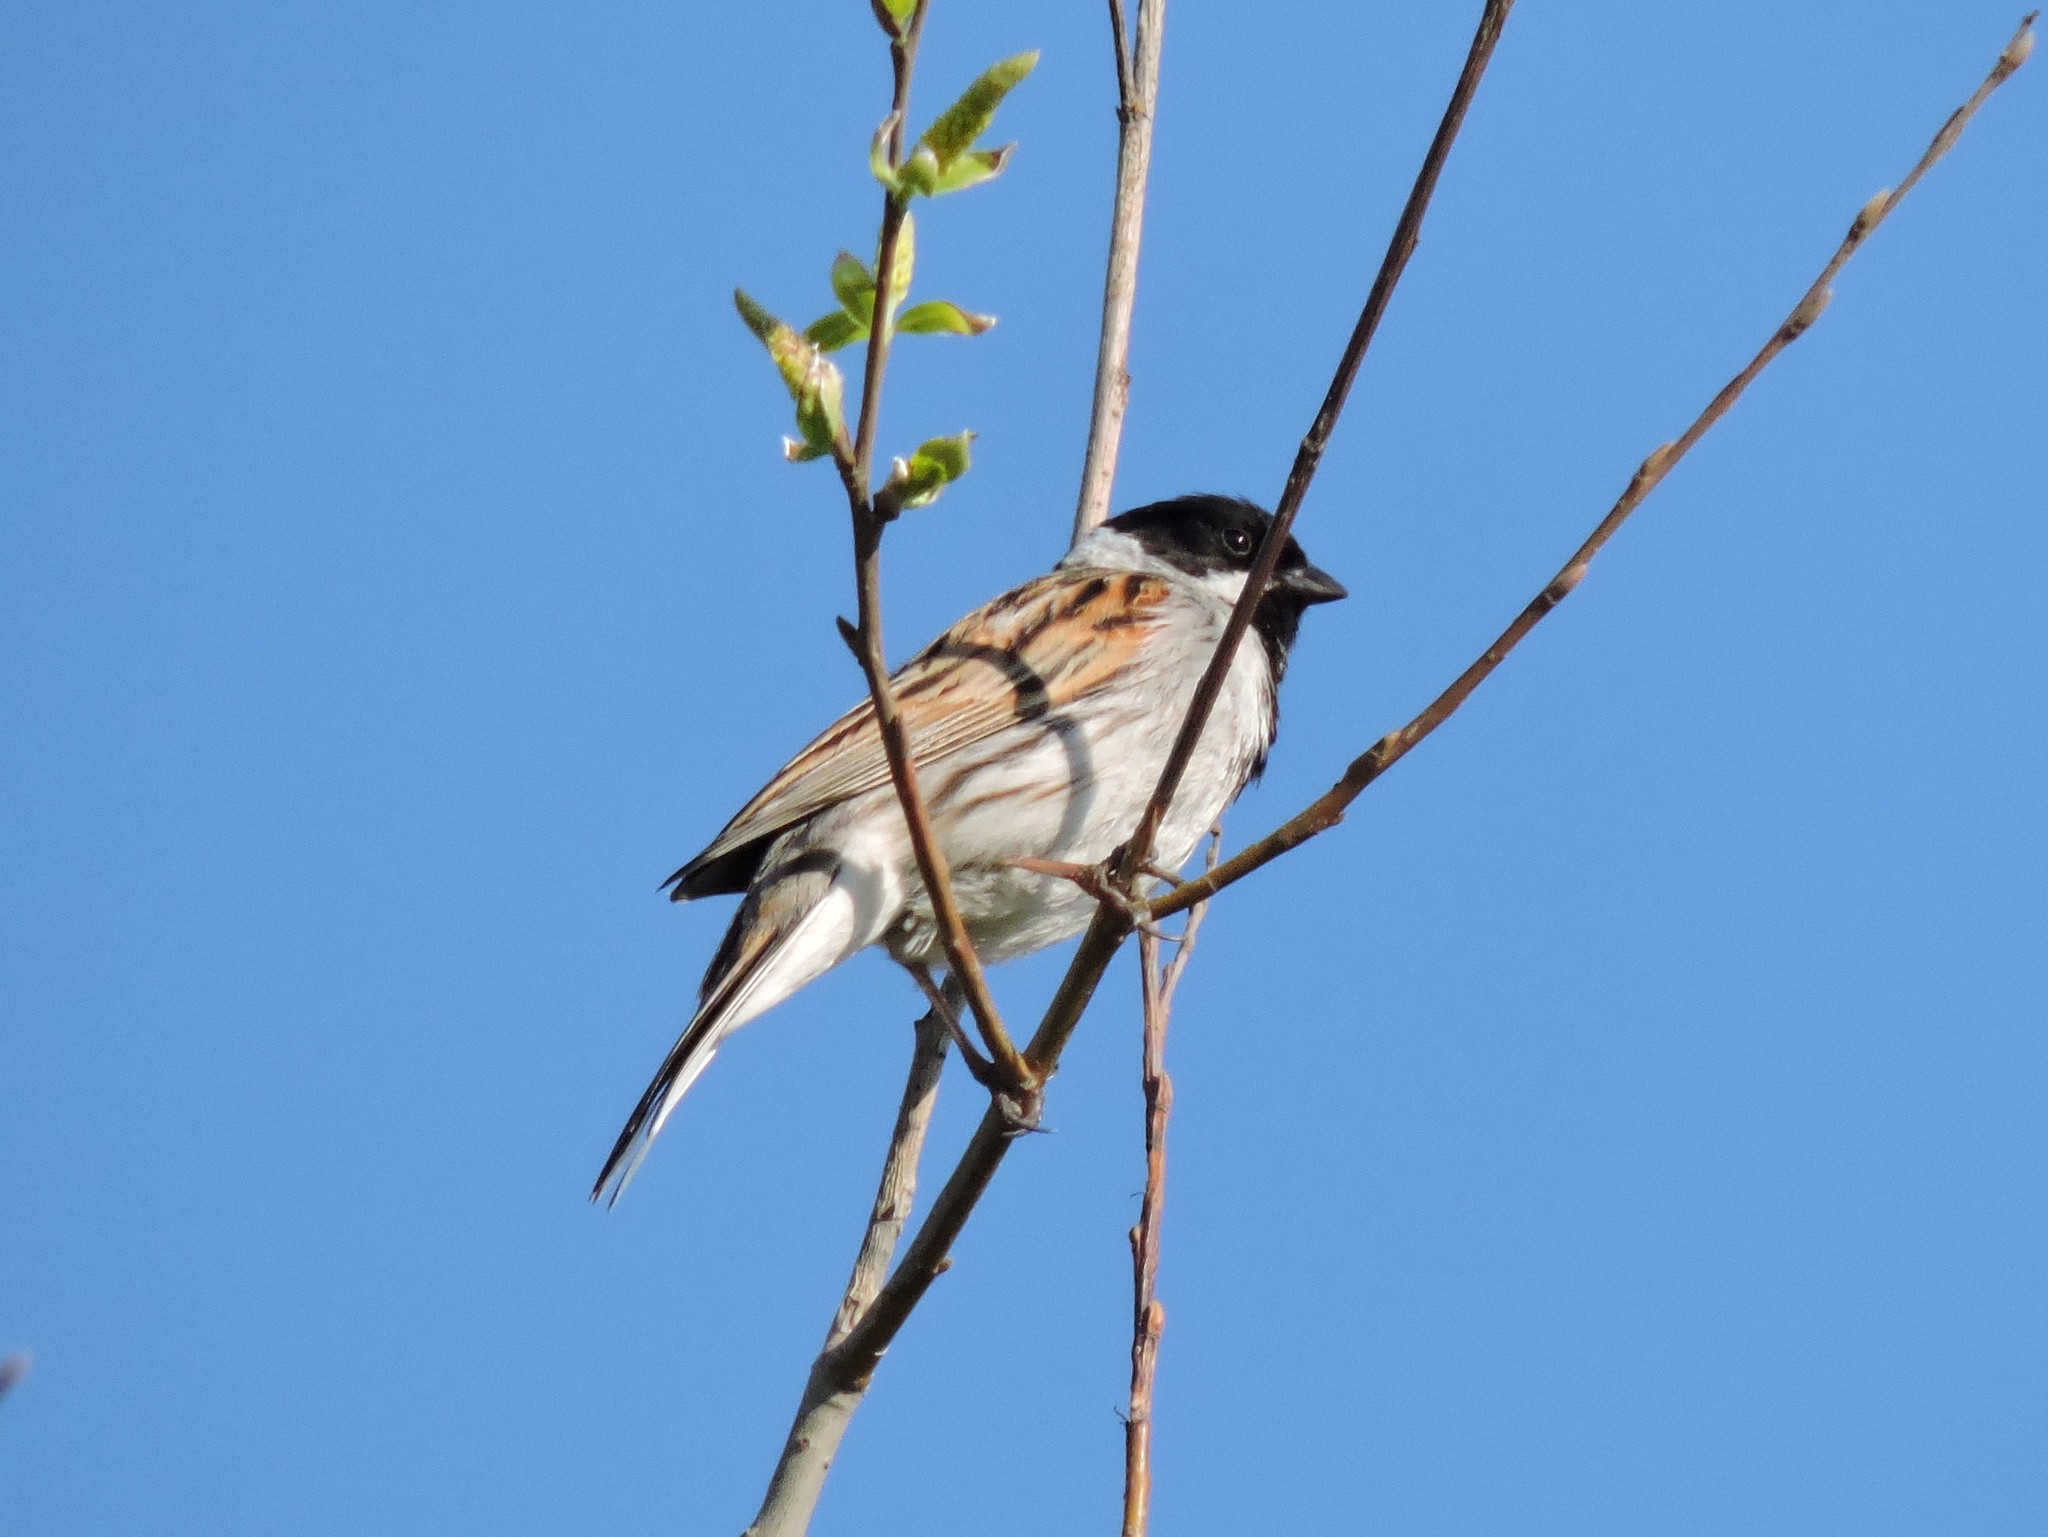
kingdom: Animalia
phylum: Chordata
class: Aves
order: Passeriformes
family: Emberizidae
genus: Emberiza
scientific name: Emberiza schoeniclus
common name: Reed bunting
